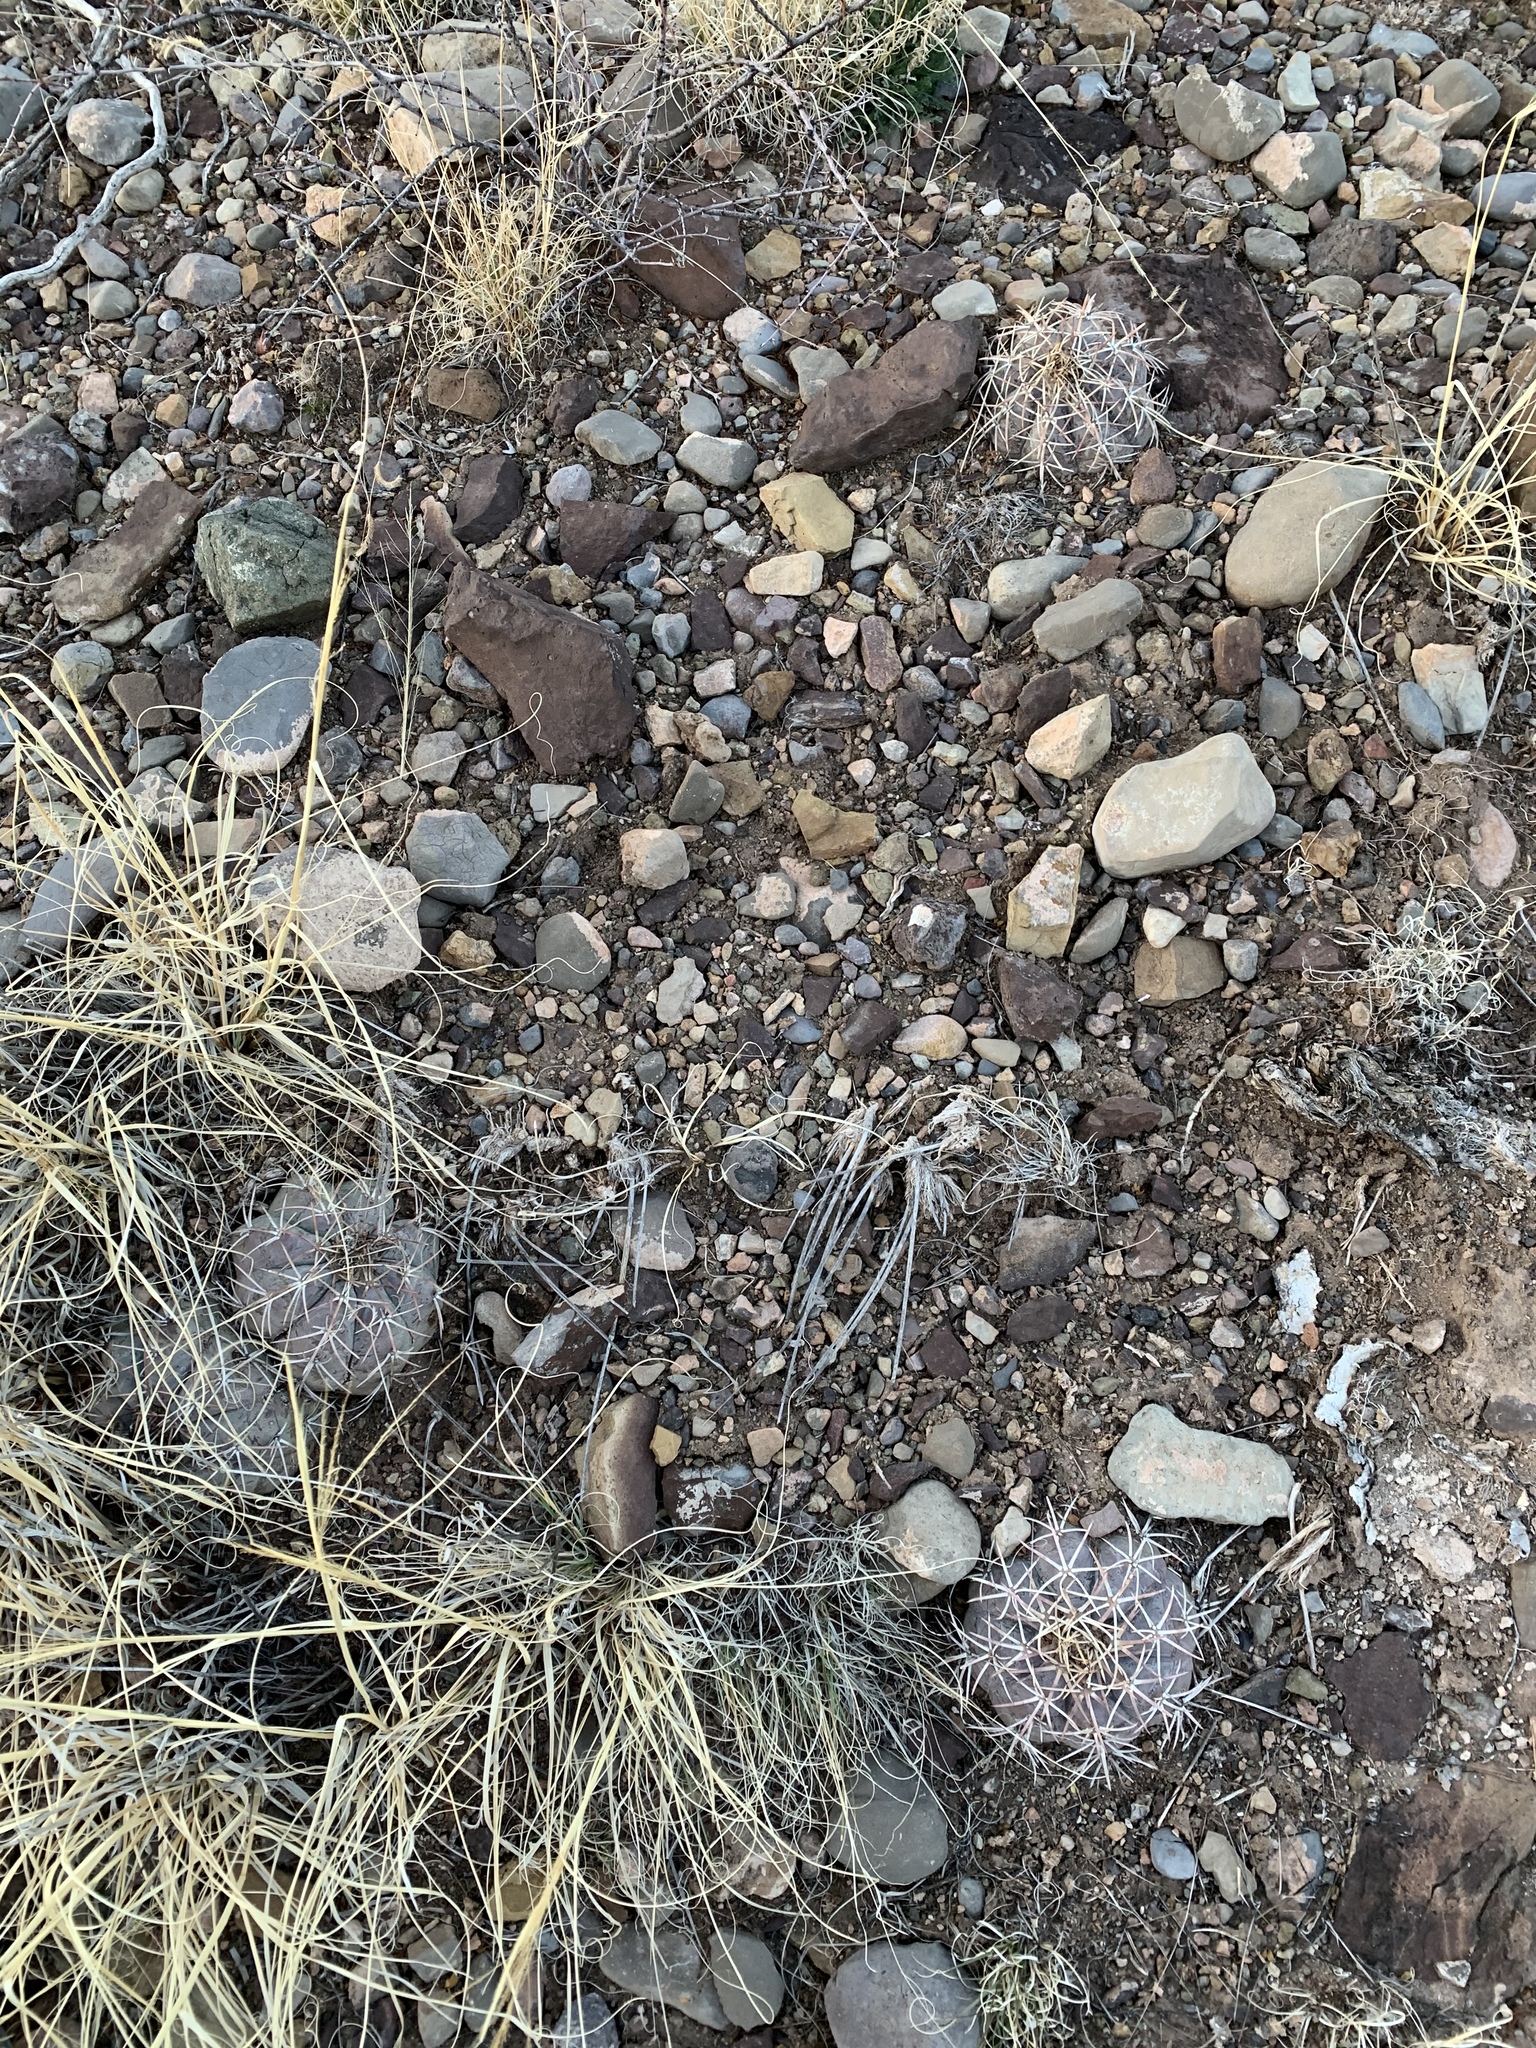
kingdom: Plantae
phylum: Tracheophyta
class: Magnoliopsida
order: Caryophyllales
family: Cactaceae
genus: Echinocactus
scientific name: Echinocactus horizonthalonius
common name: Devilshead
